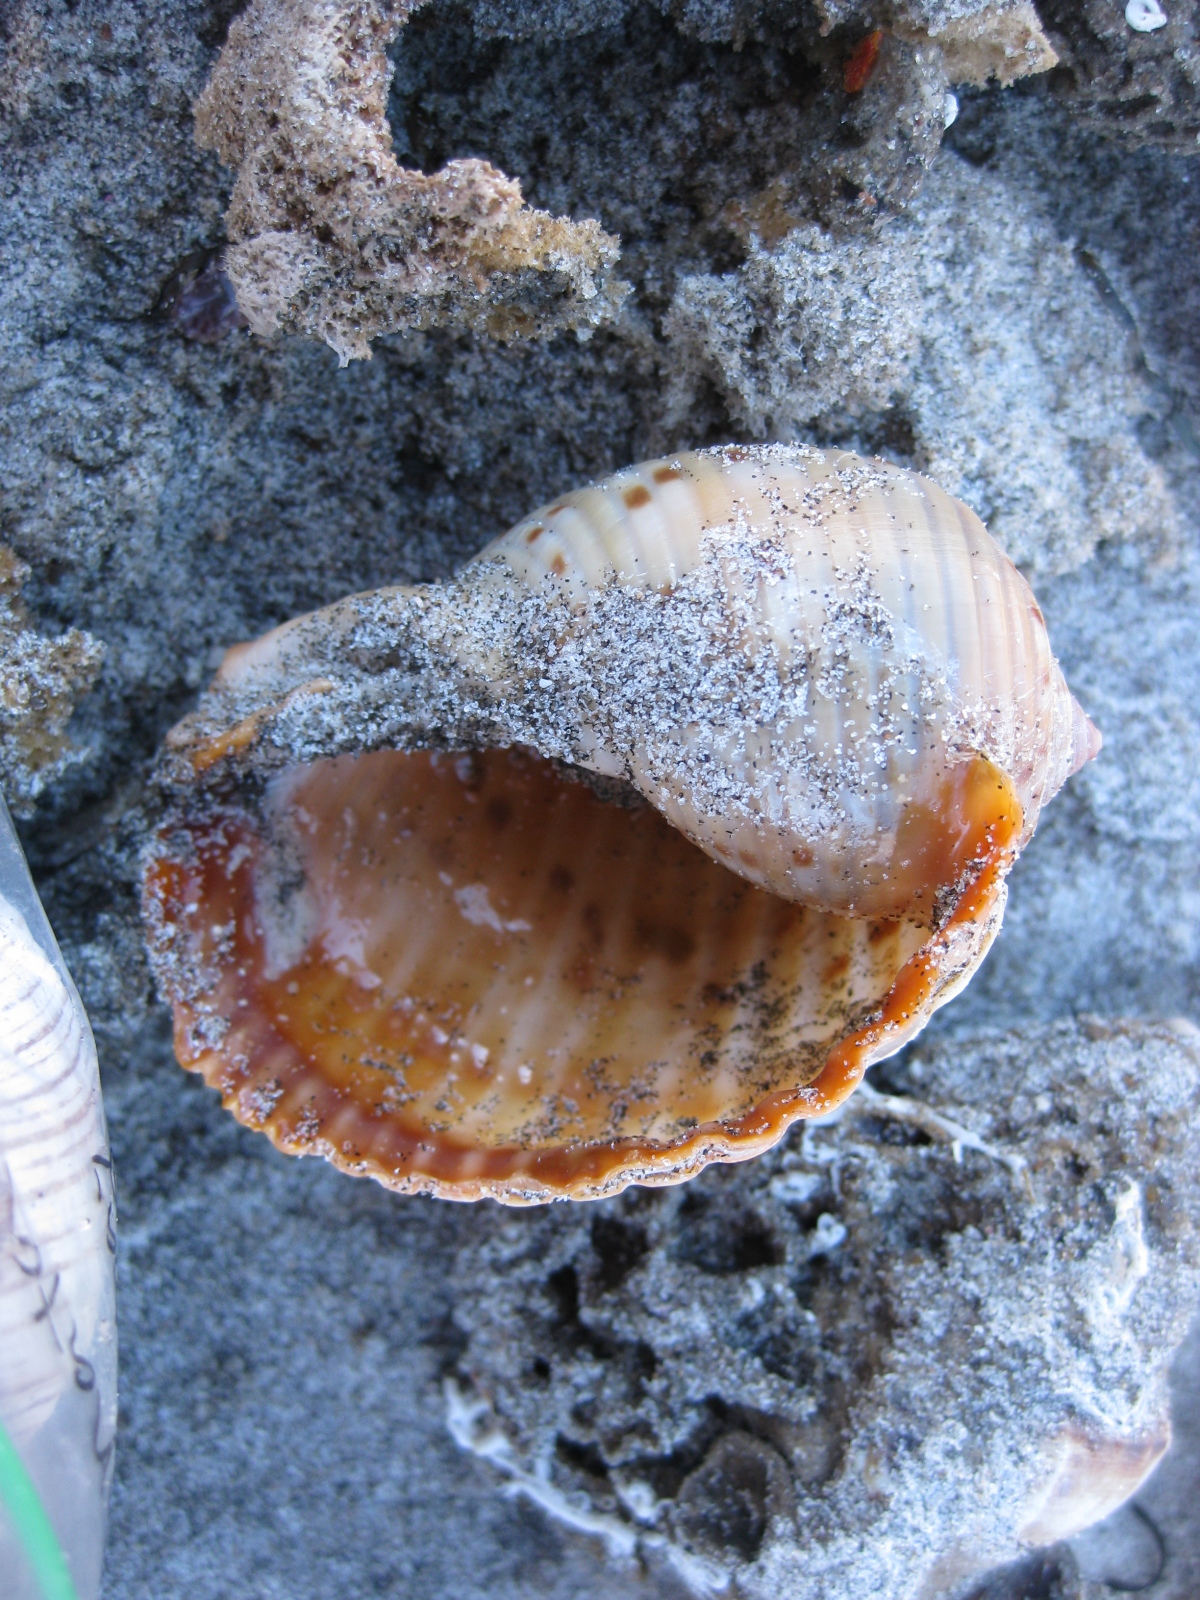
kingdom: Animalia
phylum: Mollusca
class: Gastropoda
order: Littorinimorpha
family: Tonnidae
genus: Tonna
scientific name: Tonna tankervillii
